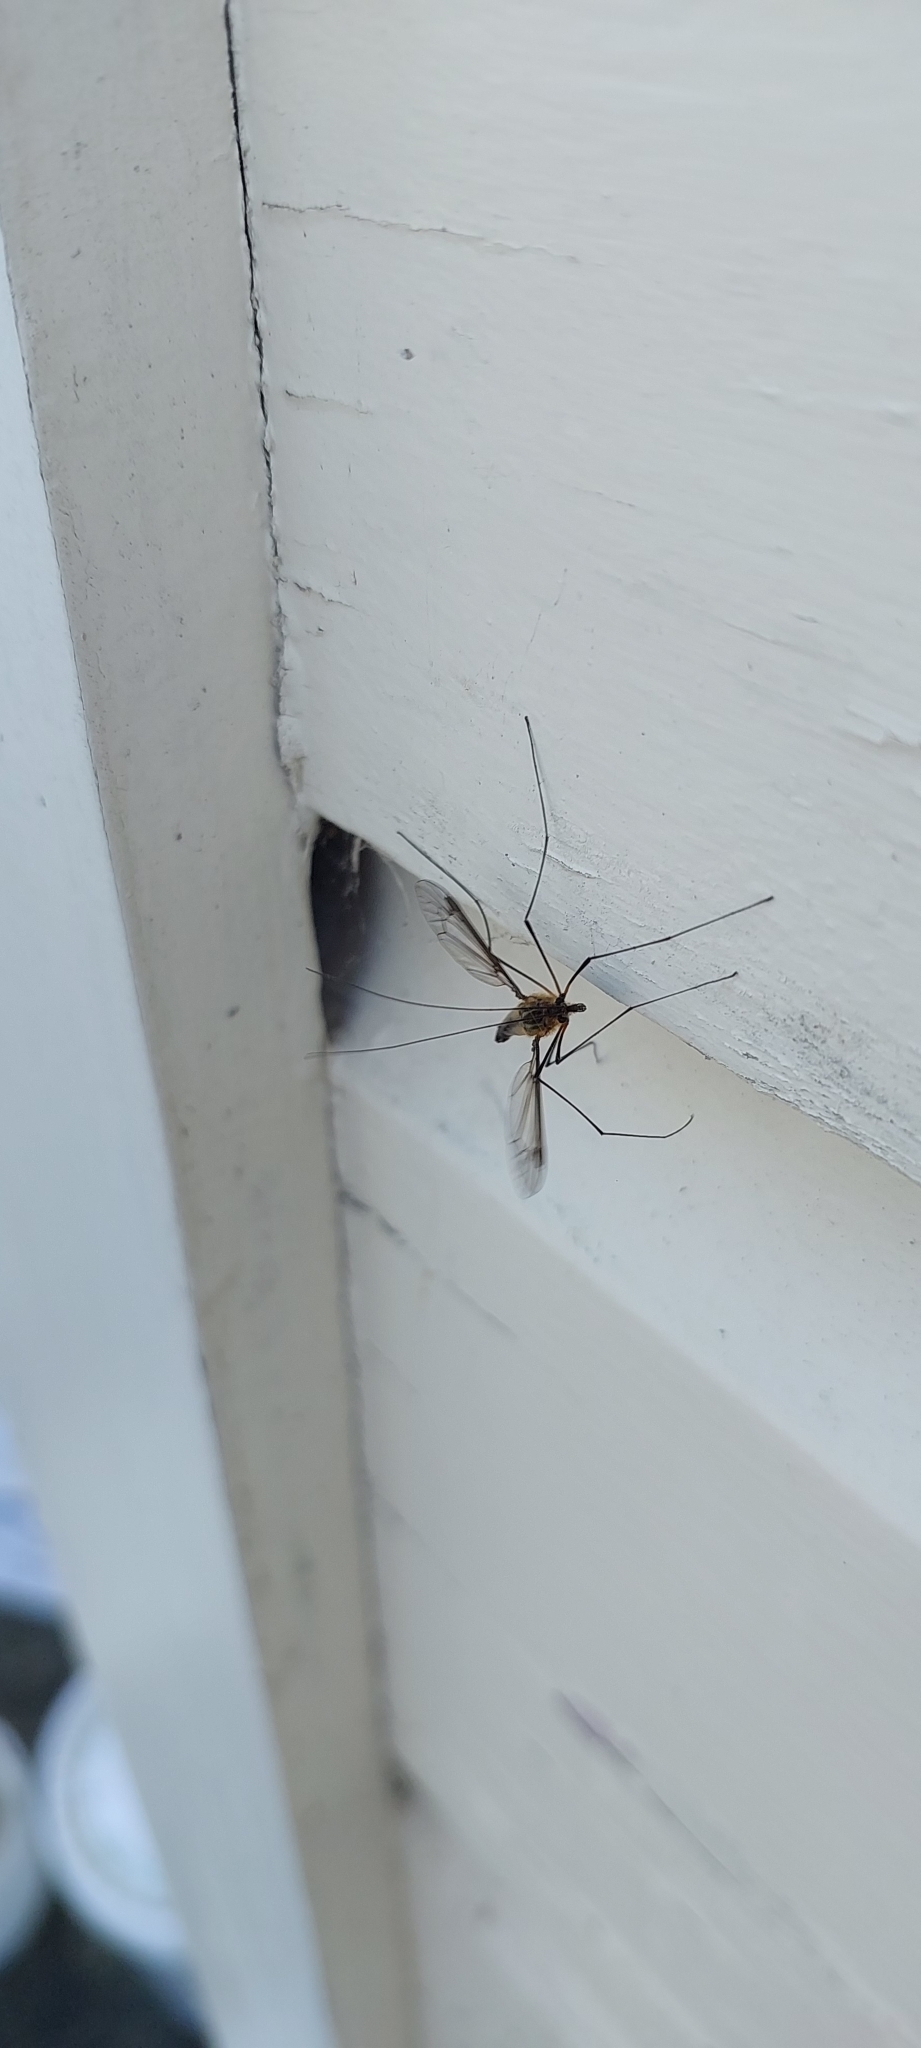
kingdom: Animalia
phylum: Arthropoda
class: Insecta
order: Diptera
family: Tipulidae
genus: Leptotarsus
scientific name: Leptotarsus vulpinus
